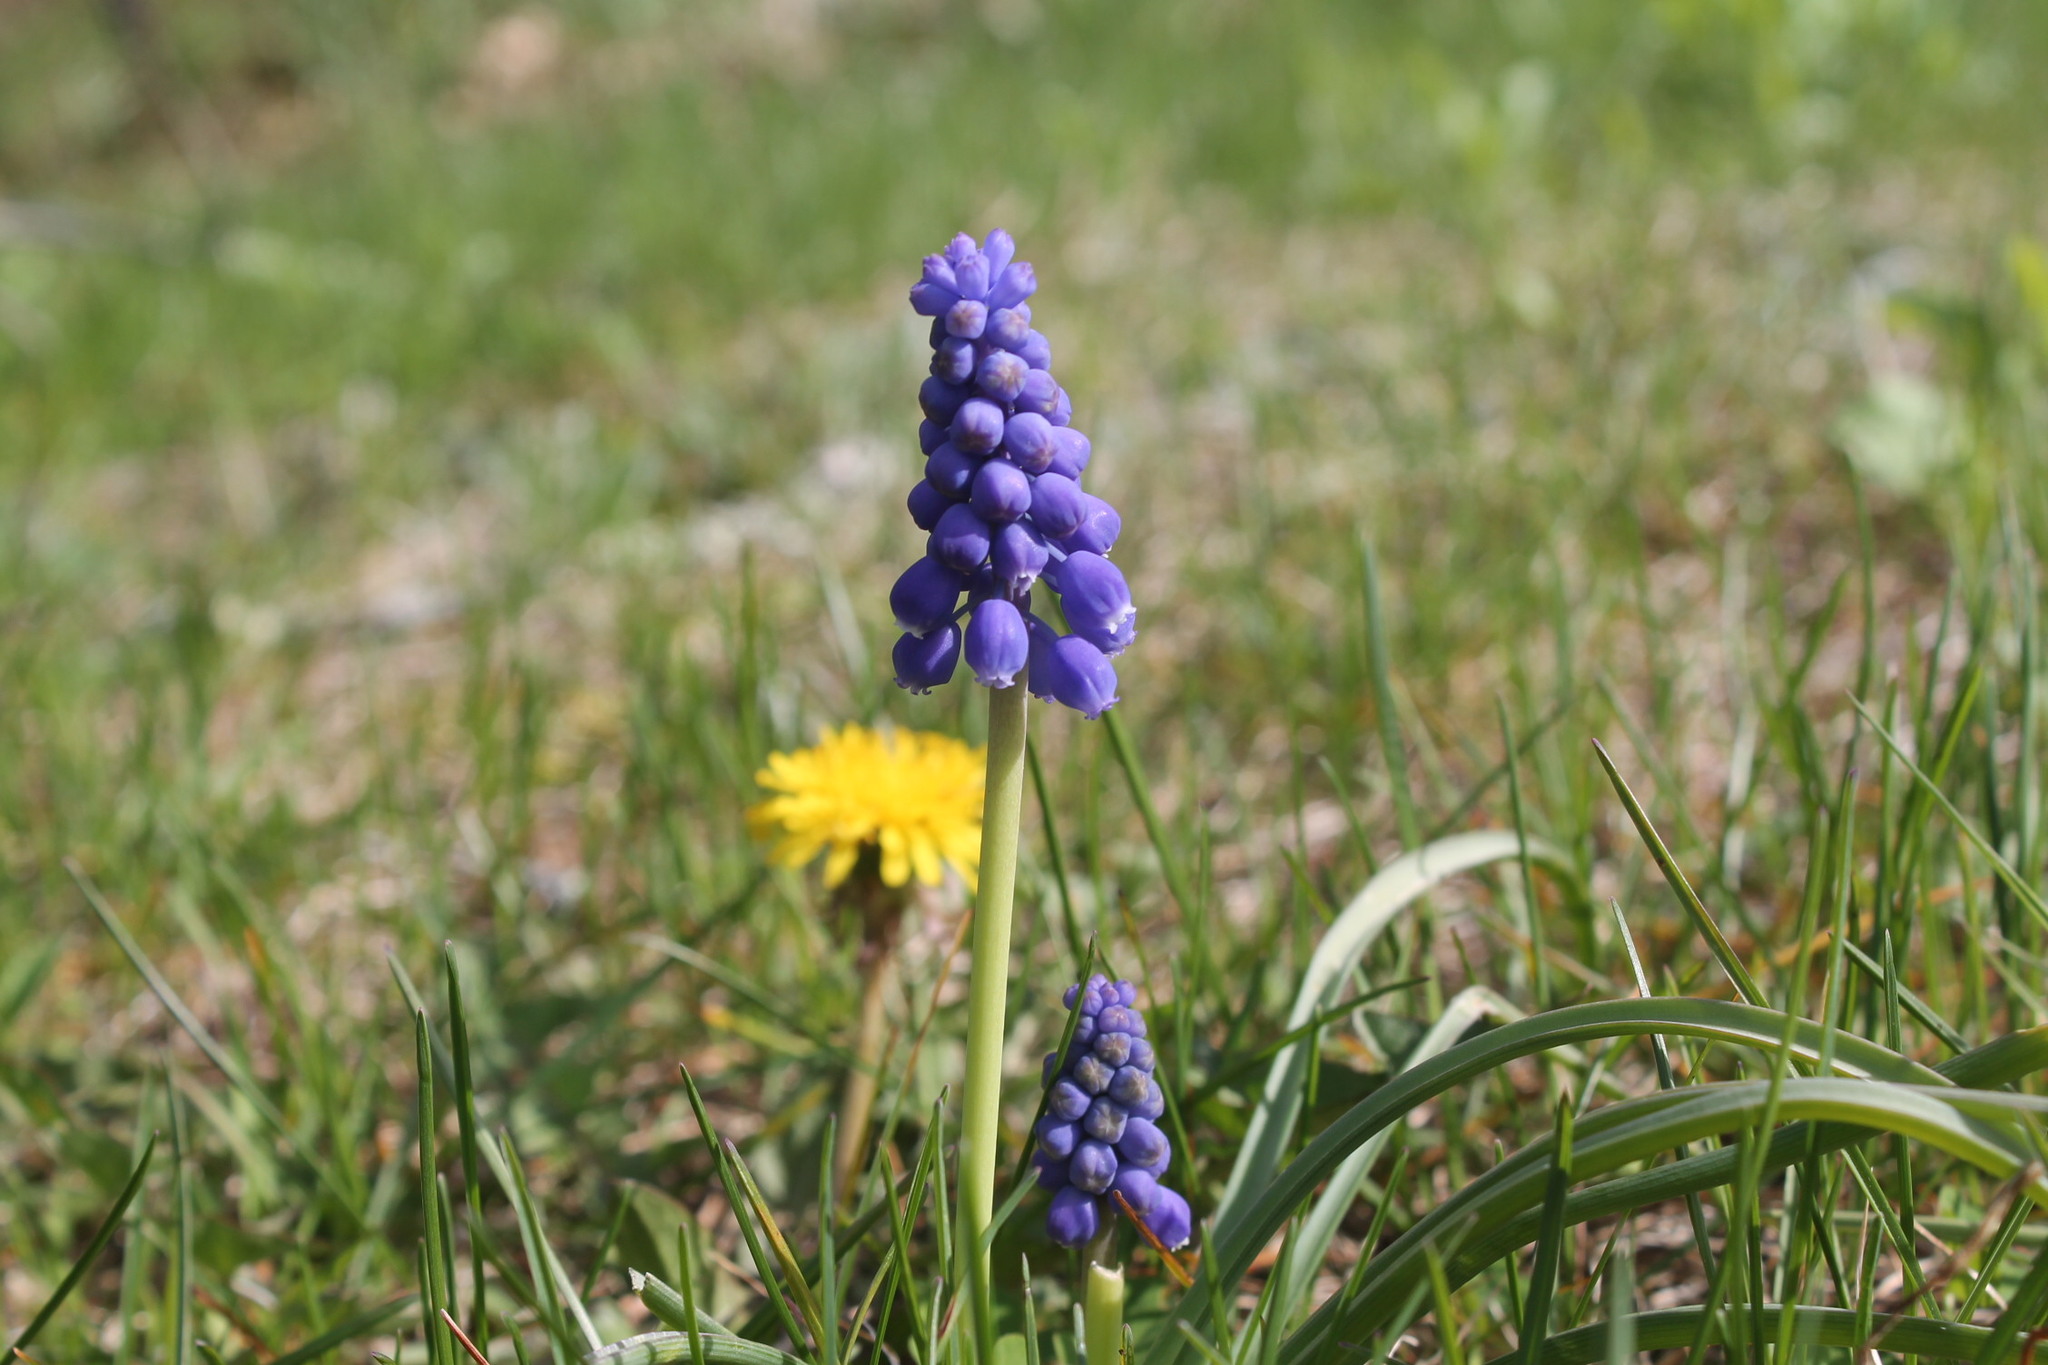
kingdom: Plantae
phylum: Tracheophyta
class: Liliopsida
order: Asparagales
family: Asparagaceae
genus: Muscari
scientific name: Muscari botryoides
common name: Compact grape-hyacinth
